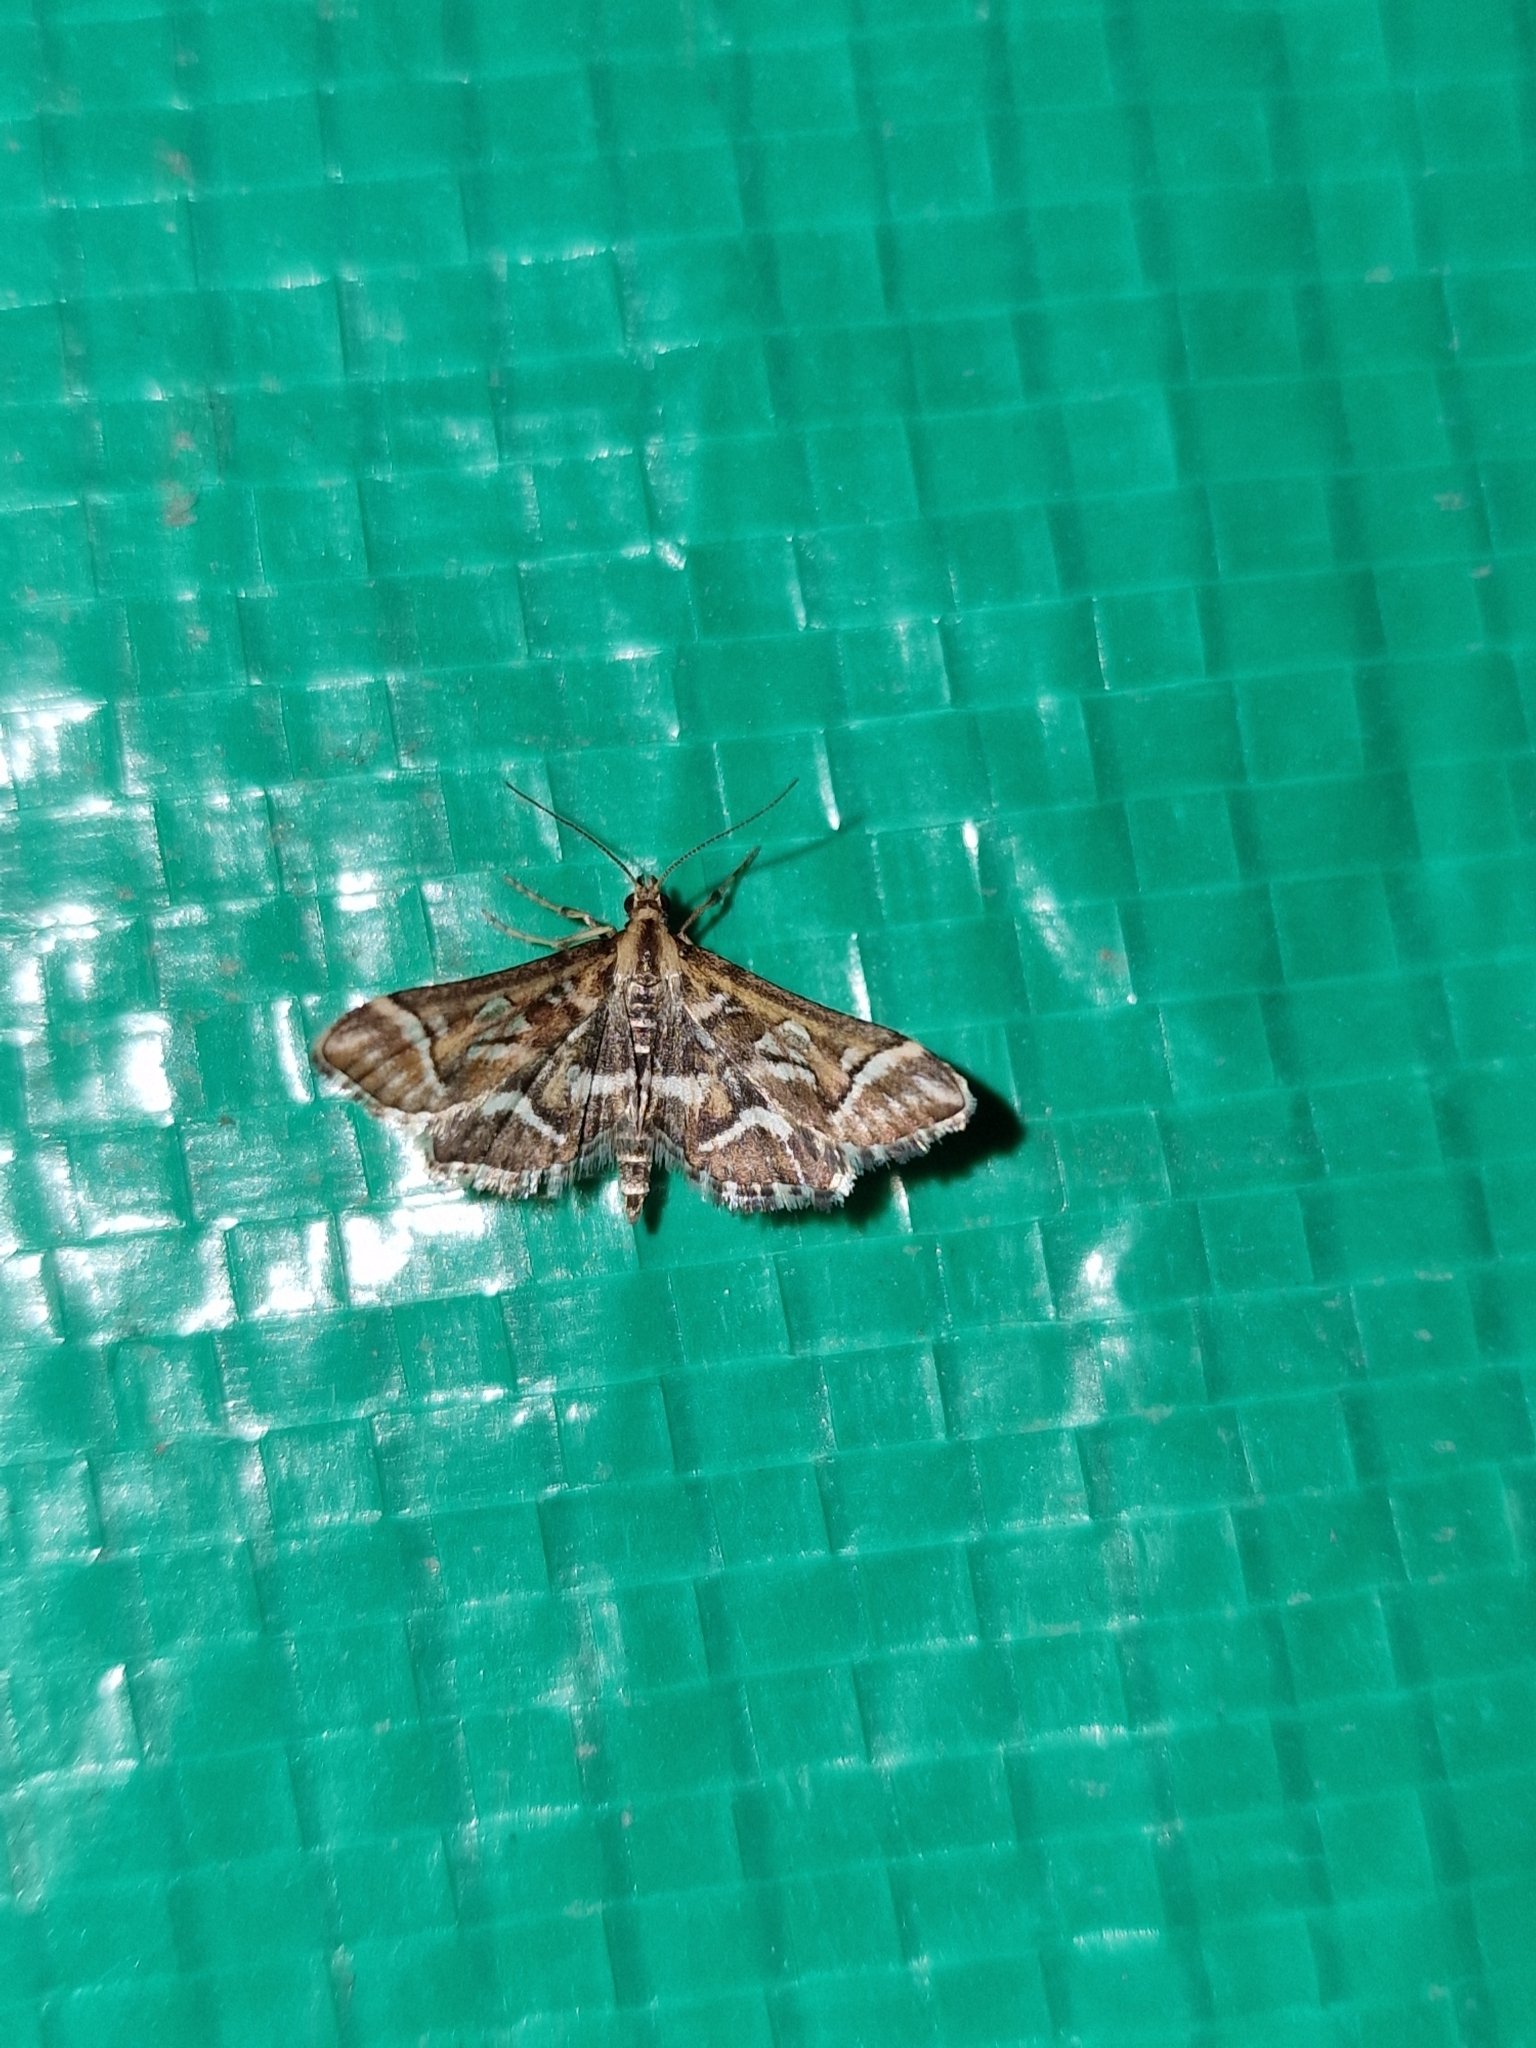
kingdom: Animalia
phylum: Arthropoda
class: Insecta
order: Lepidoptera
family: Crambidae
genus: Diasemia
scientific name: Diasemia reticularis
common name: Lettered china-mark
